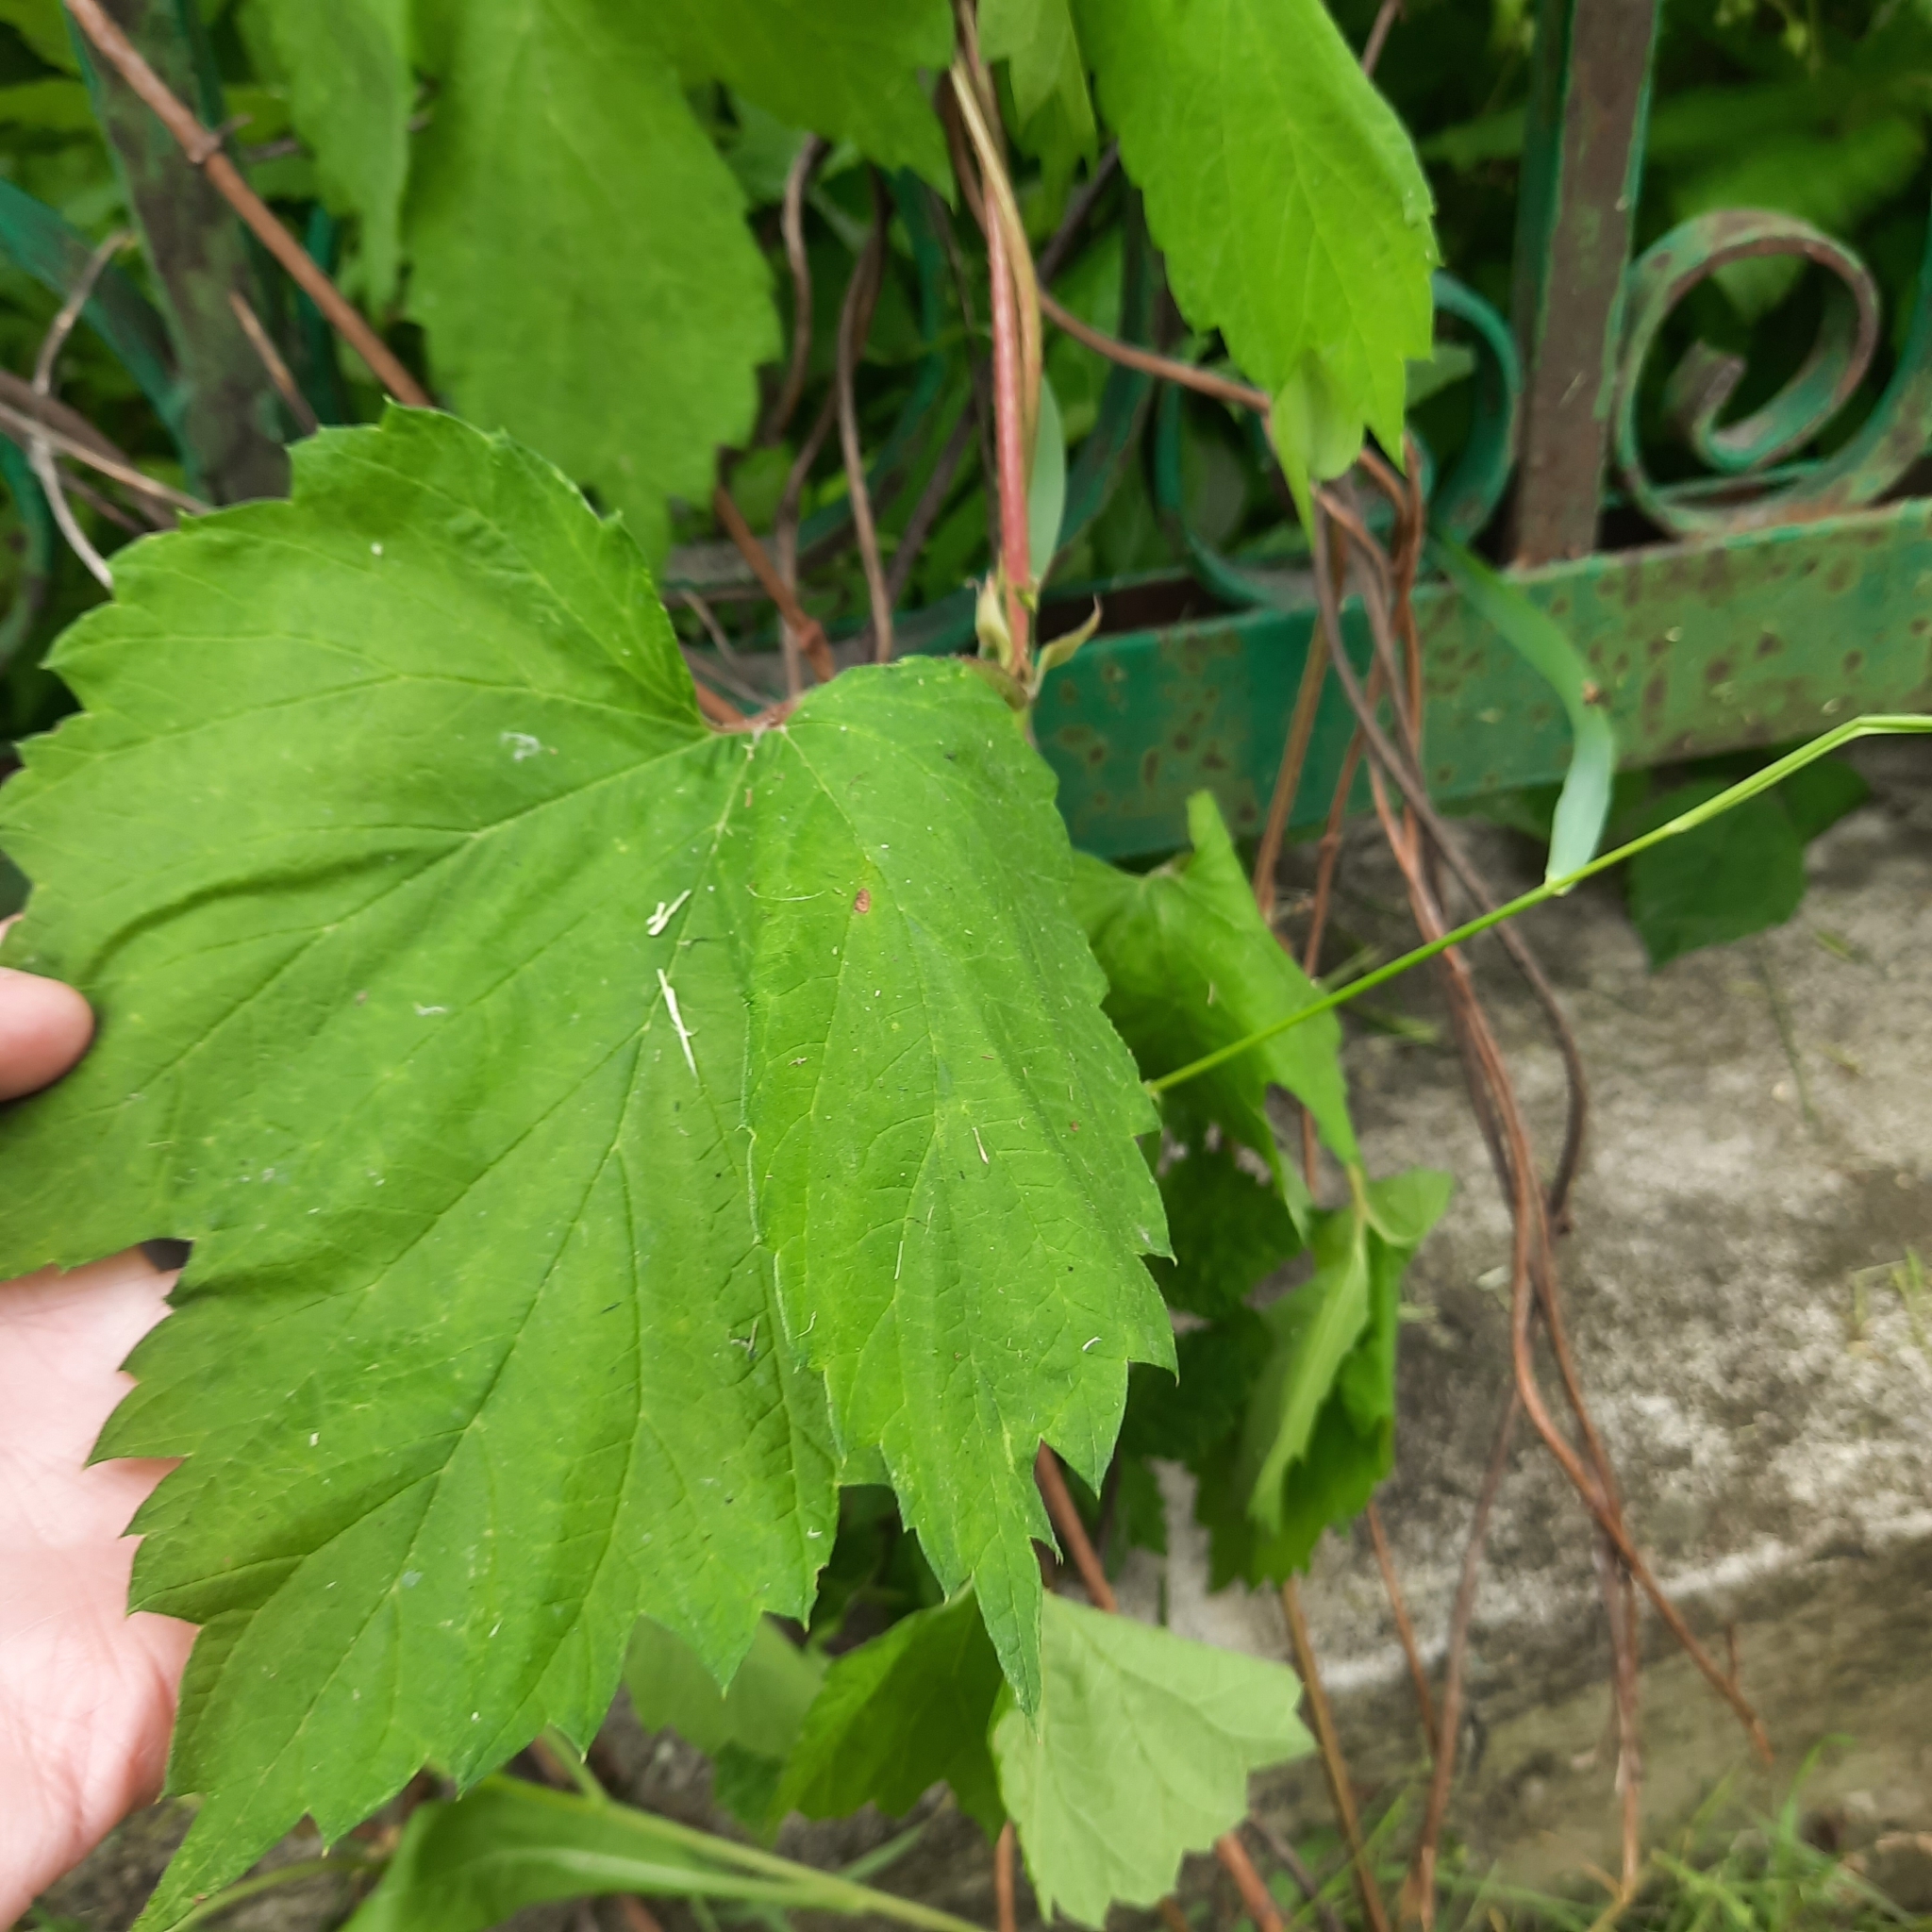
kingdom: Plantae
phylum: Tracheophyta
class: Magnoliopsida
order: Rosales
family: Cannabaceae
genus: Humulus
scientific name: Humulus lupulus
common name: Hop
